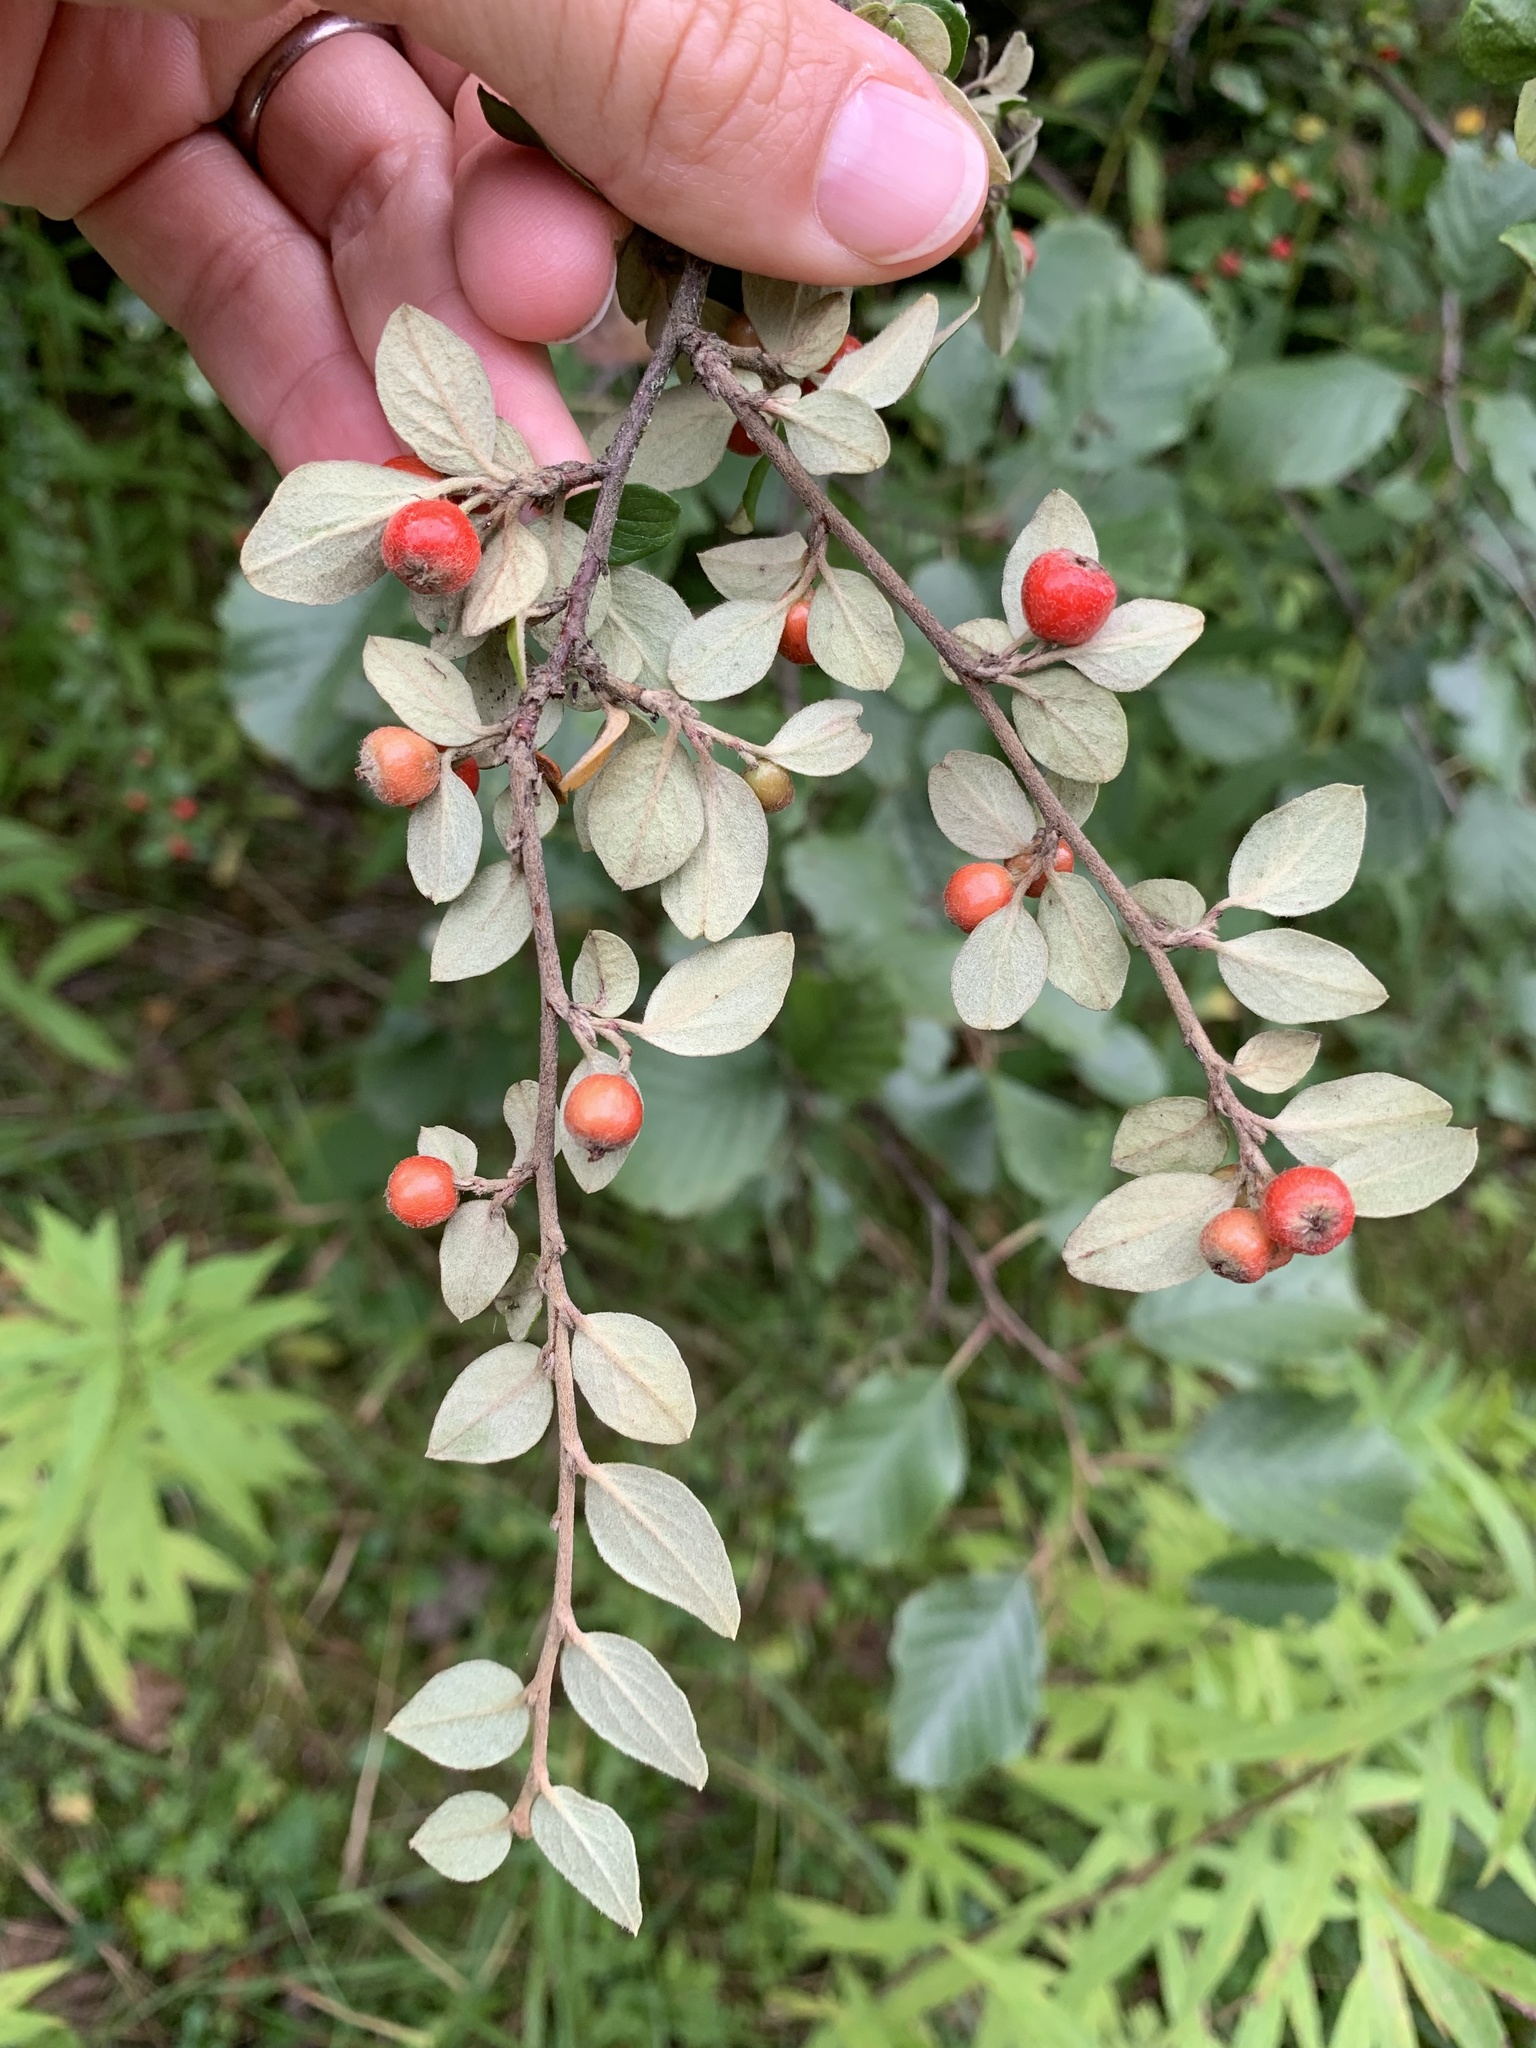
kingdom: Plantae
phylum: Tracheophyta
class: Magnoliopsida
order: Rosales
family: Rosaceae
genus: Cotoneaster
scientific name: Cotoneaster dielsianus
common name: Diels's cotoneaster
